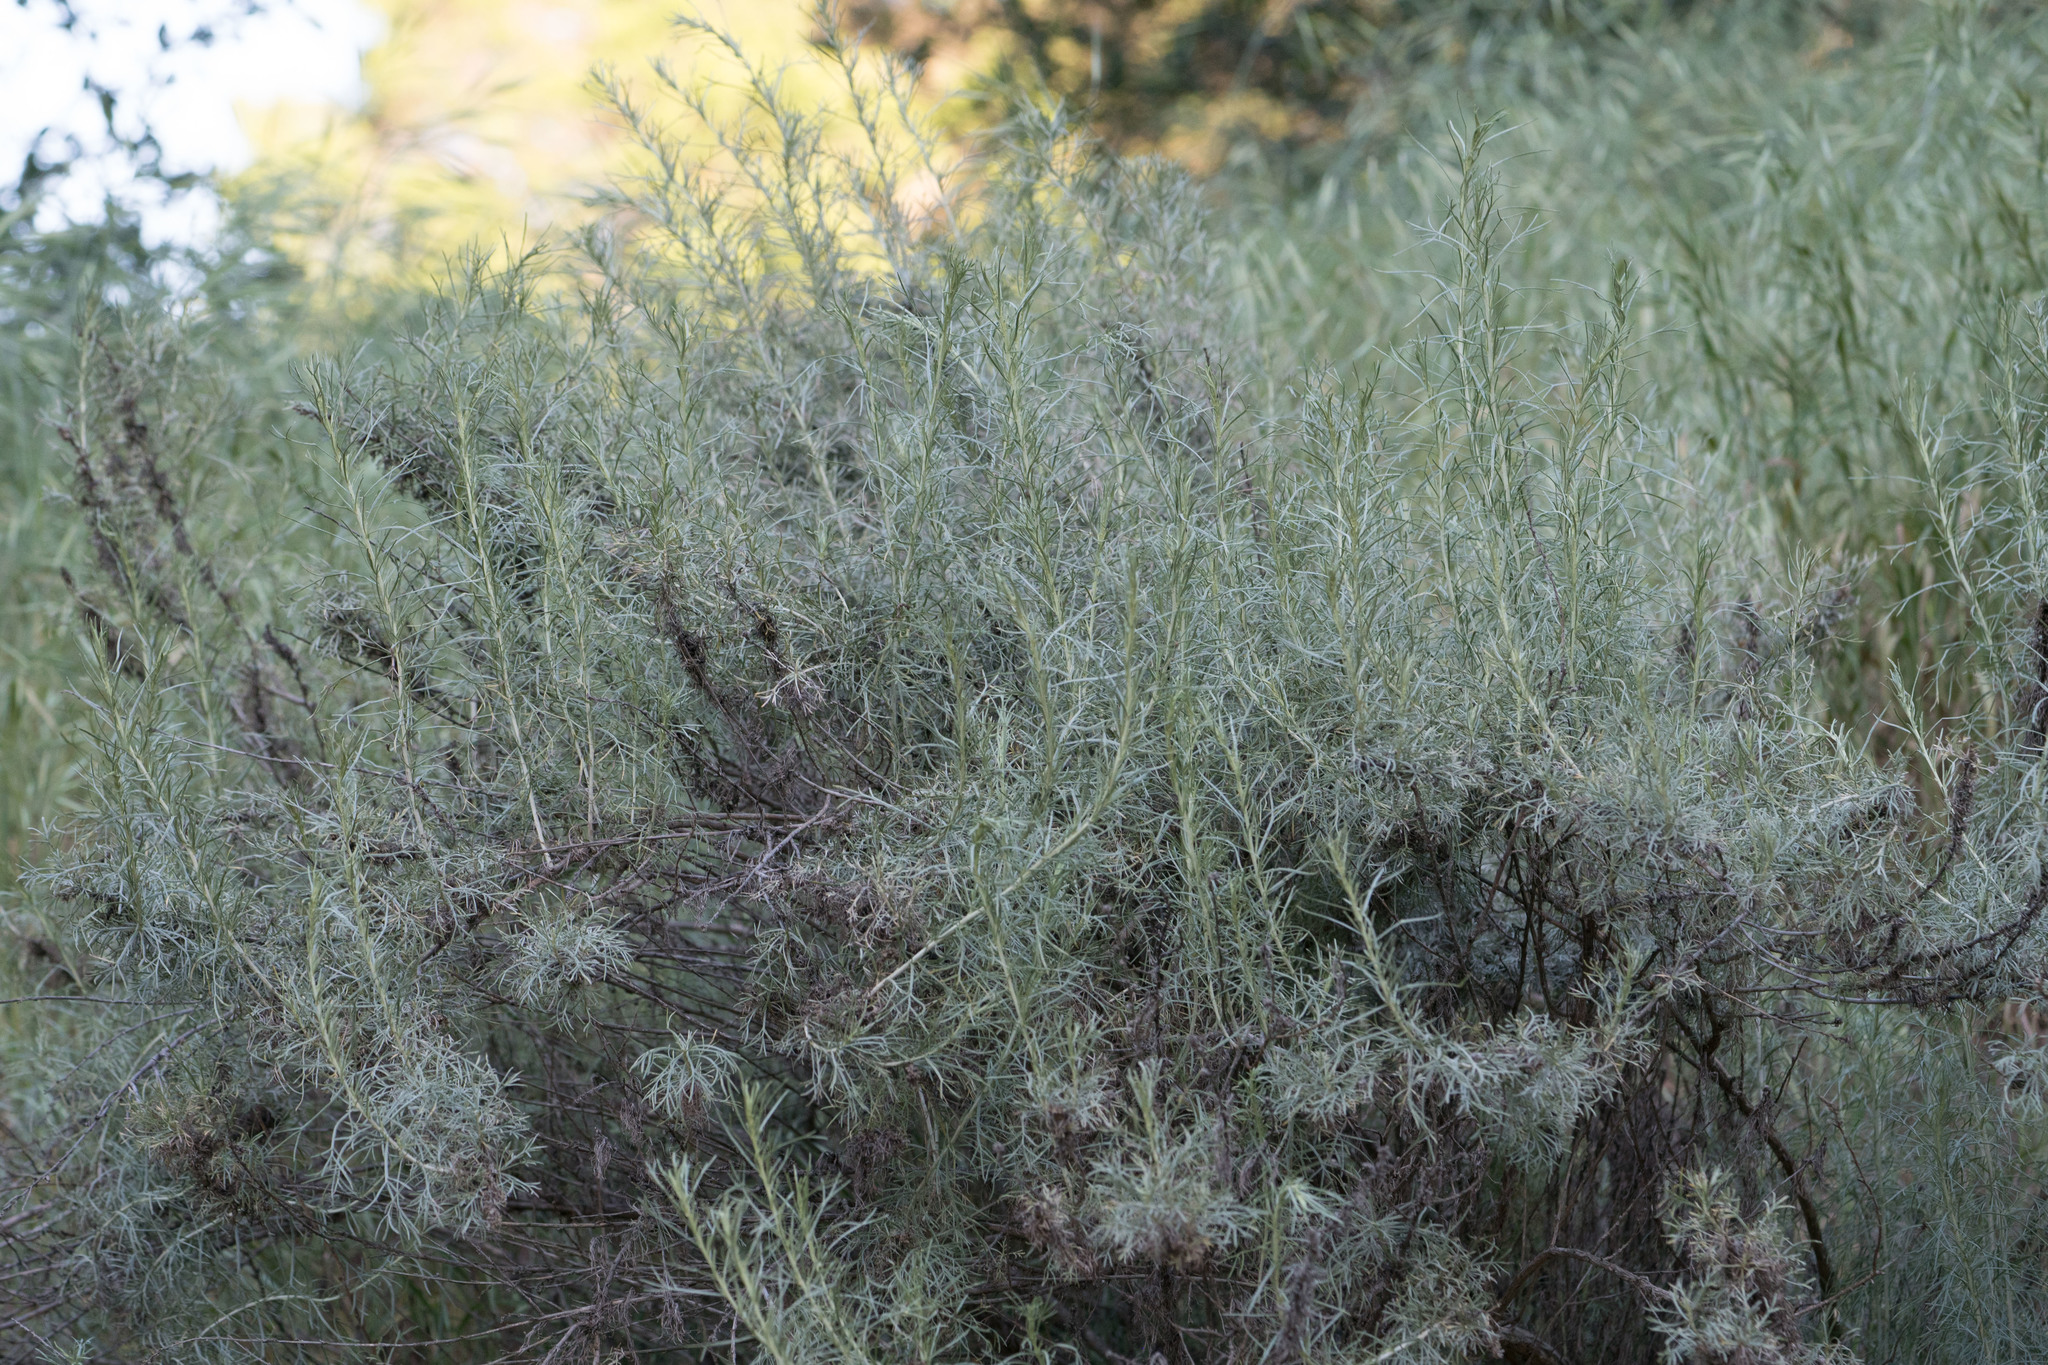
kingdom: Plantae
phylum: Tracheophyta
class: Magnoliopsida
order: Asterales
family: Asteraceae
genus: Artemisia
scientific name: Artemisia californica
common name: California sagebrush
